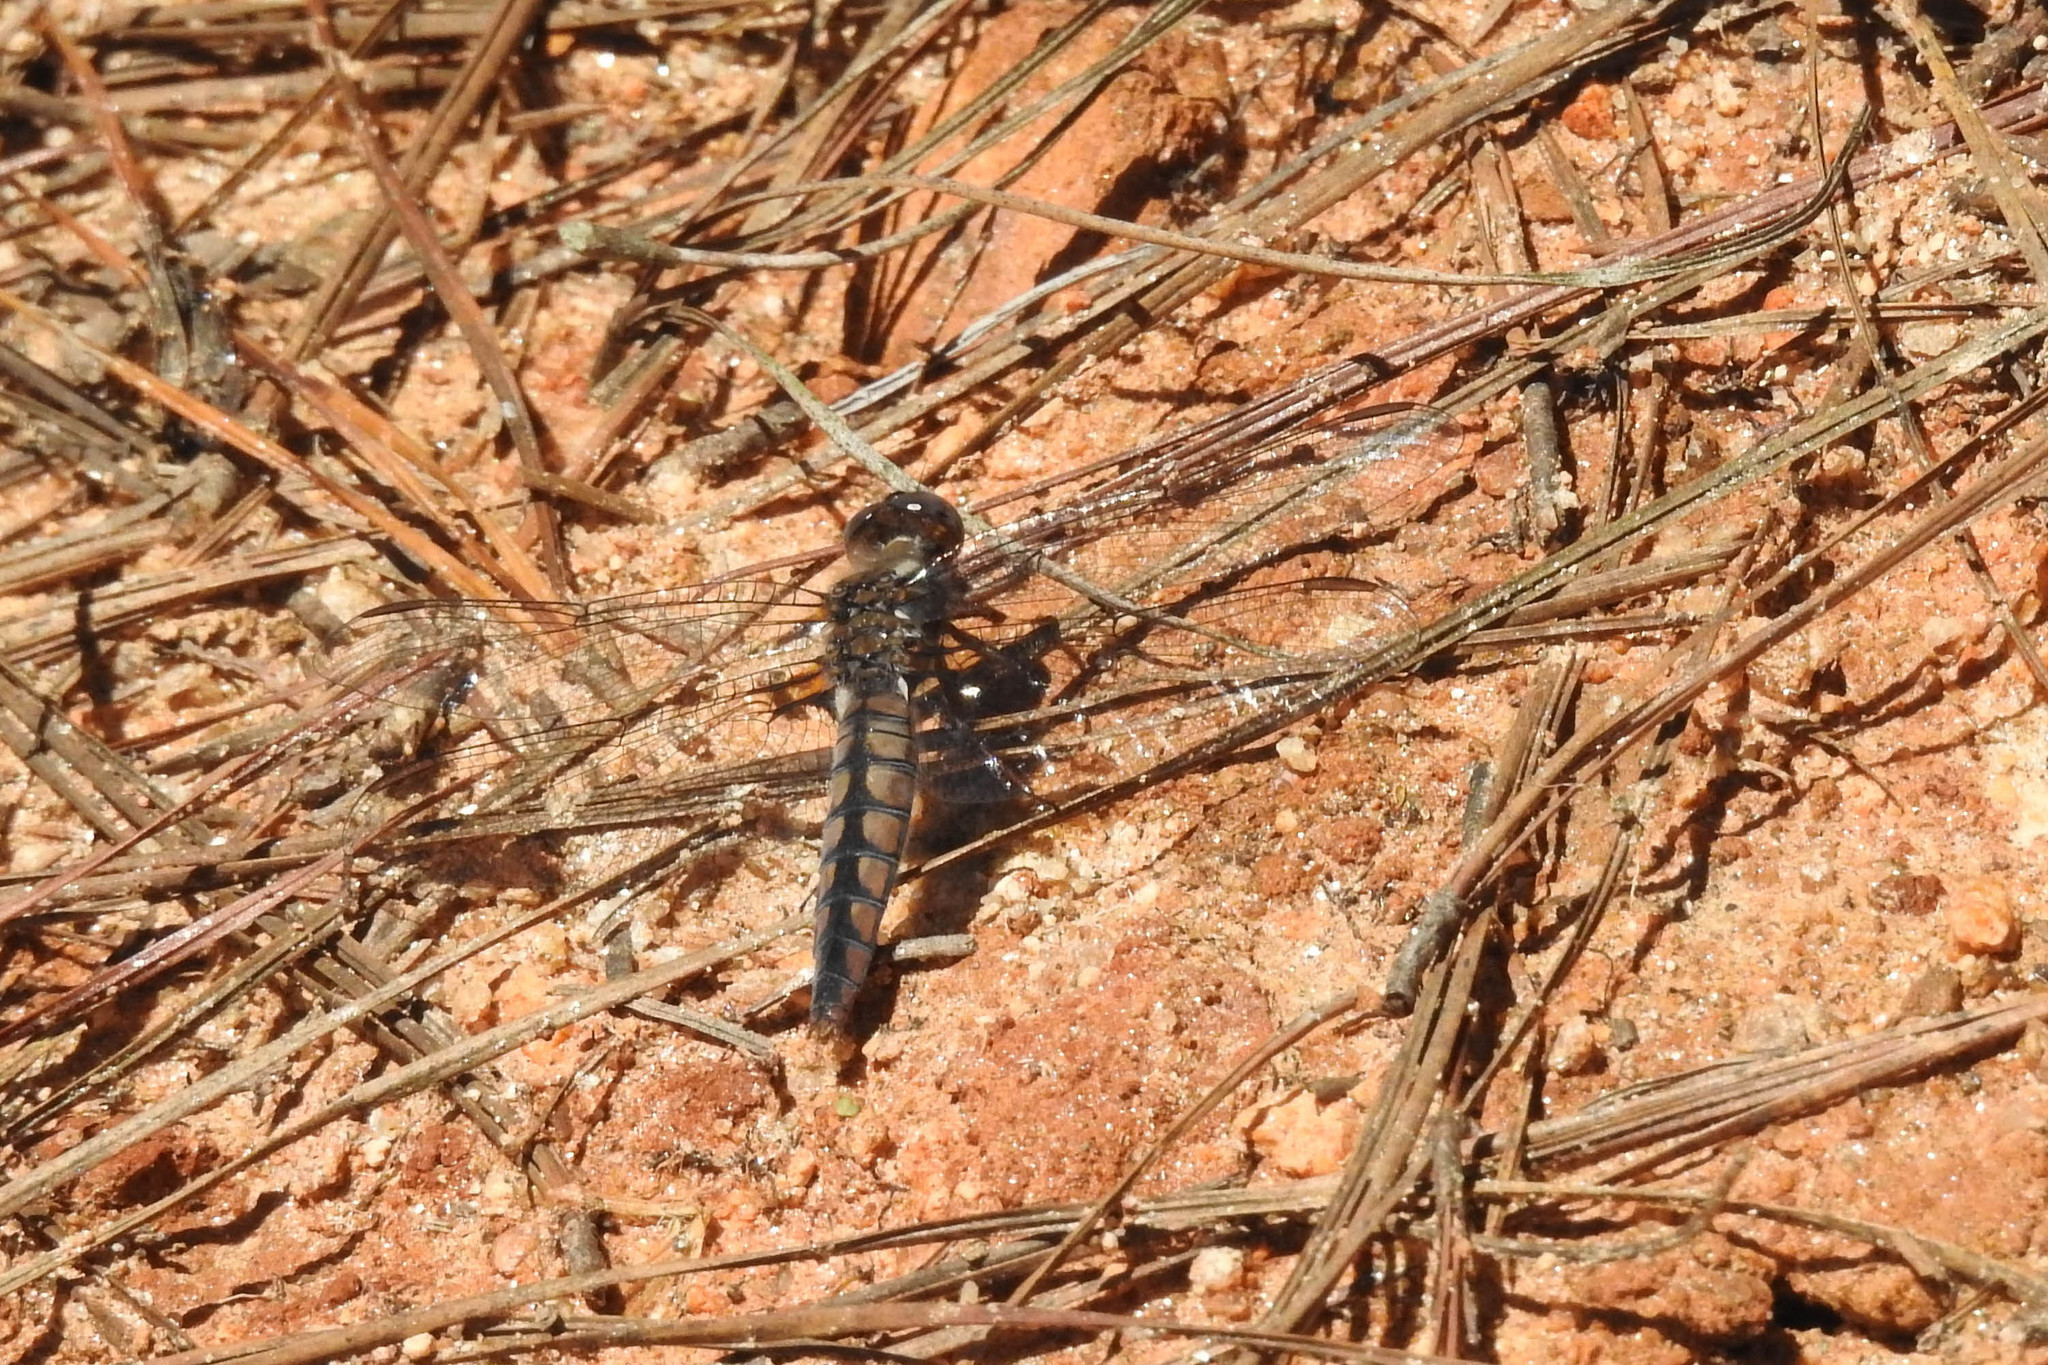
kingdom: Animalia
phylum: Arthropoda
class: Insecta
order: Odonata
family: Libellulidae
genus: Ladona
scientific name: Ladona deplanata
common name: Blue corporal
